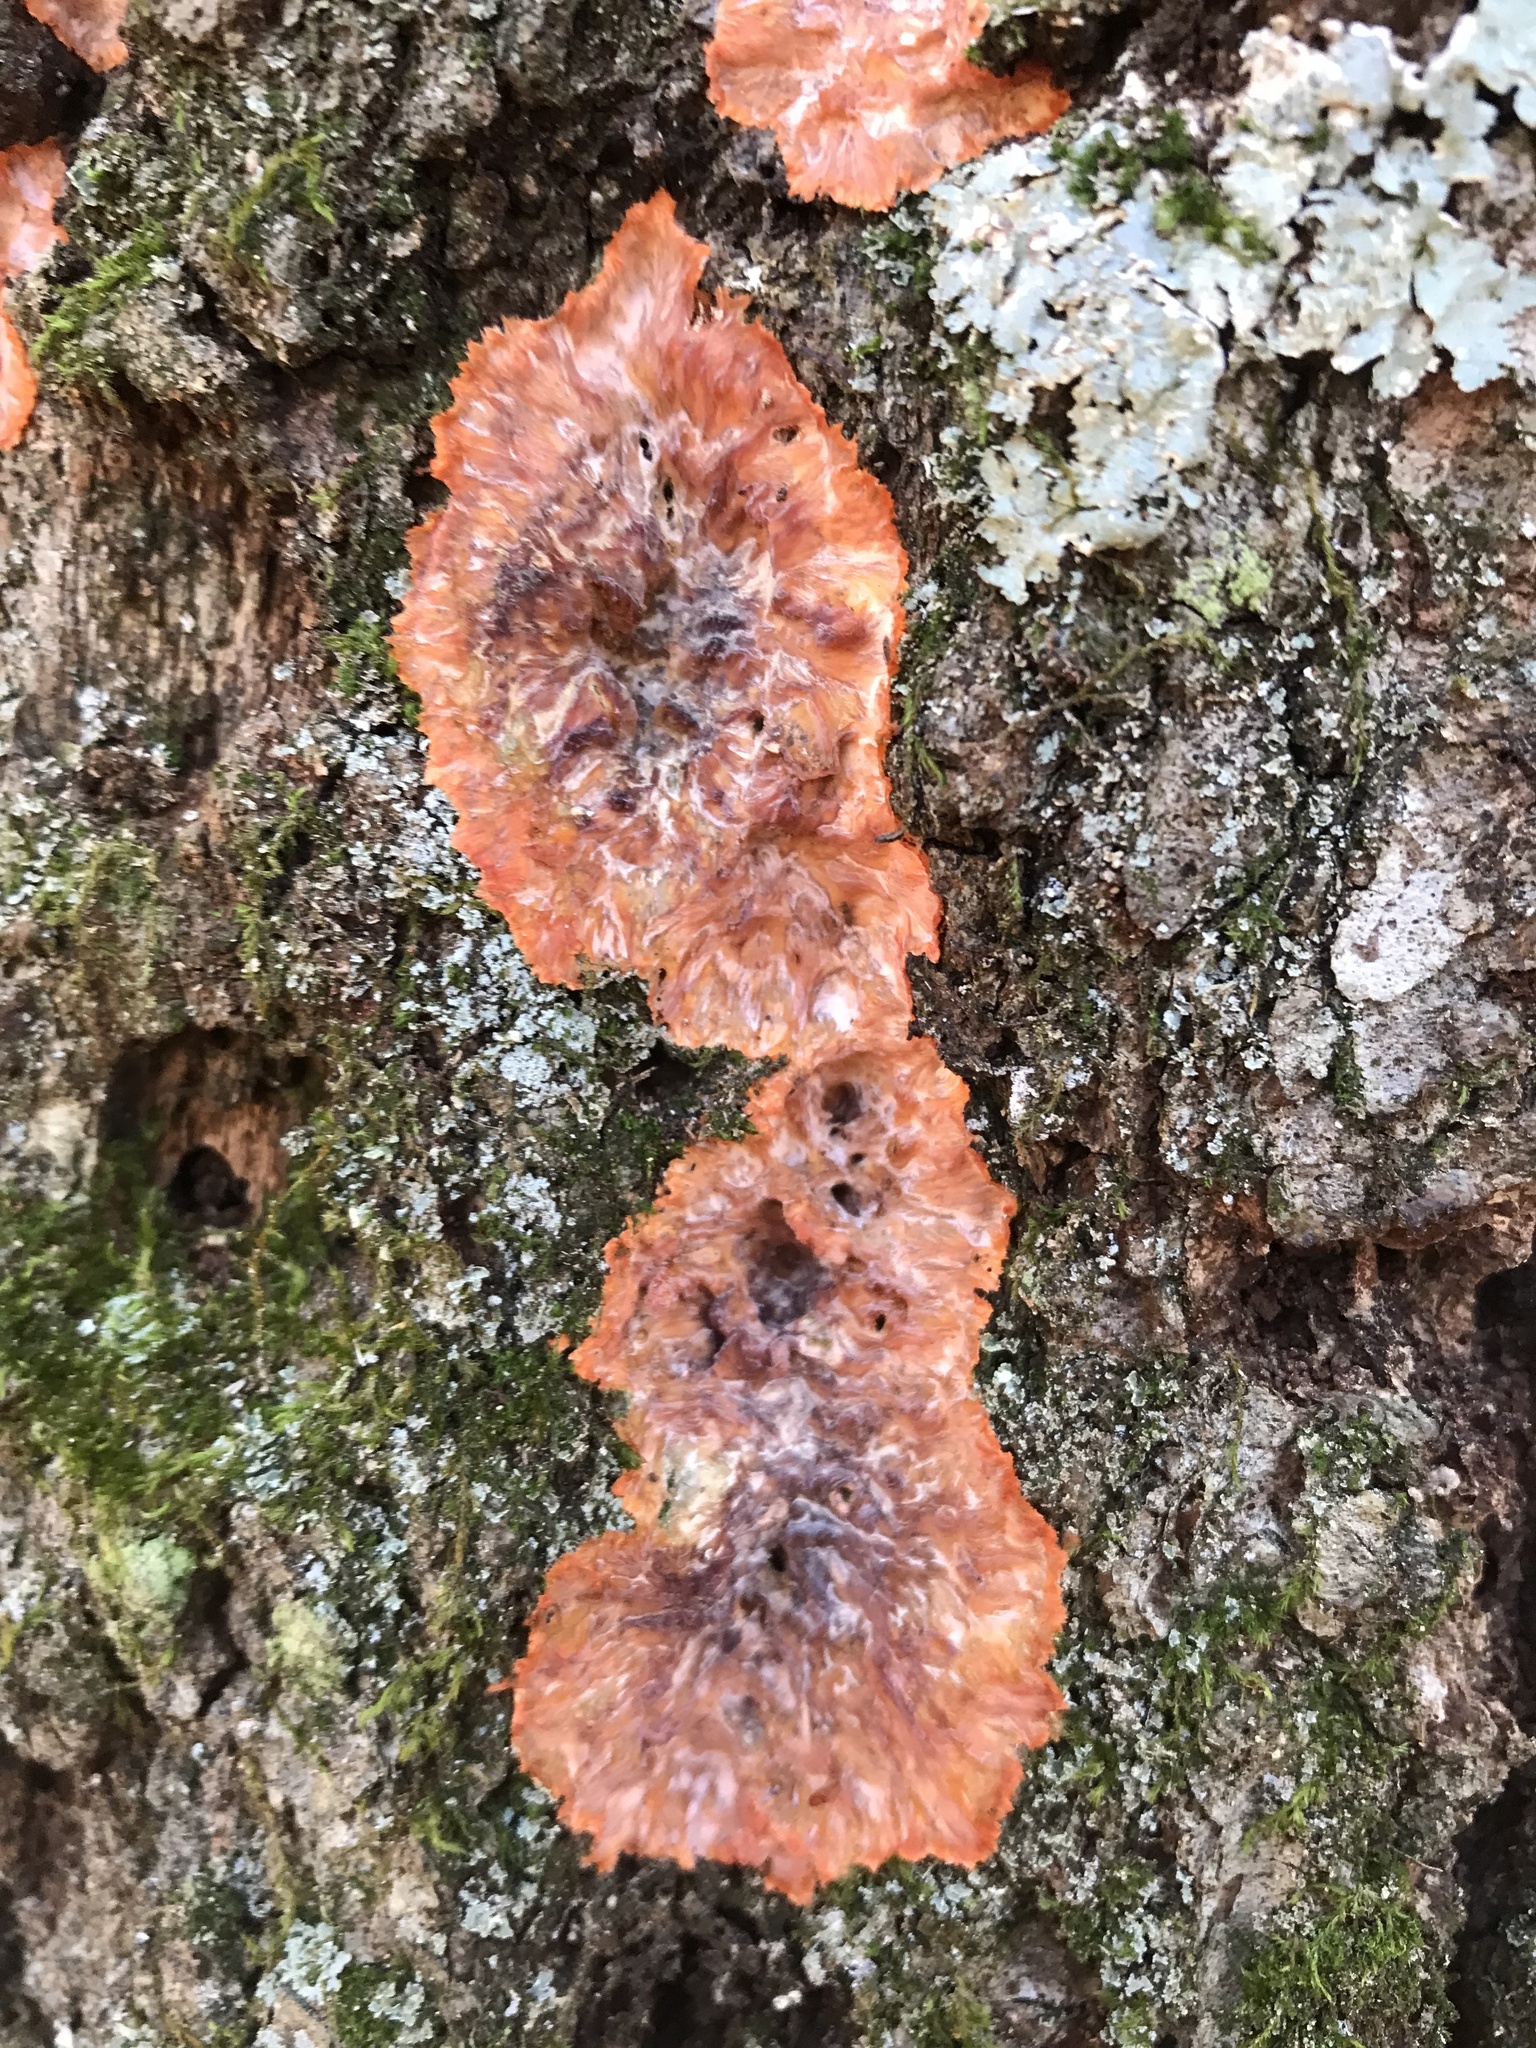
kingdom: Fungi
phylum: Basidiomycota
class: Agaricomycetes
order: Polyporales
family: Meruliaceae
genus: Phlebia
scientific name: Phlebia radiata
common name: Wrinkled crust
